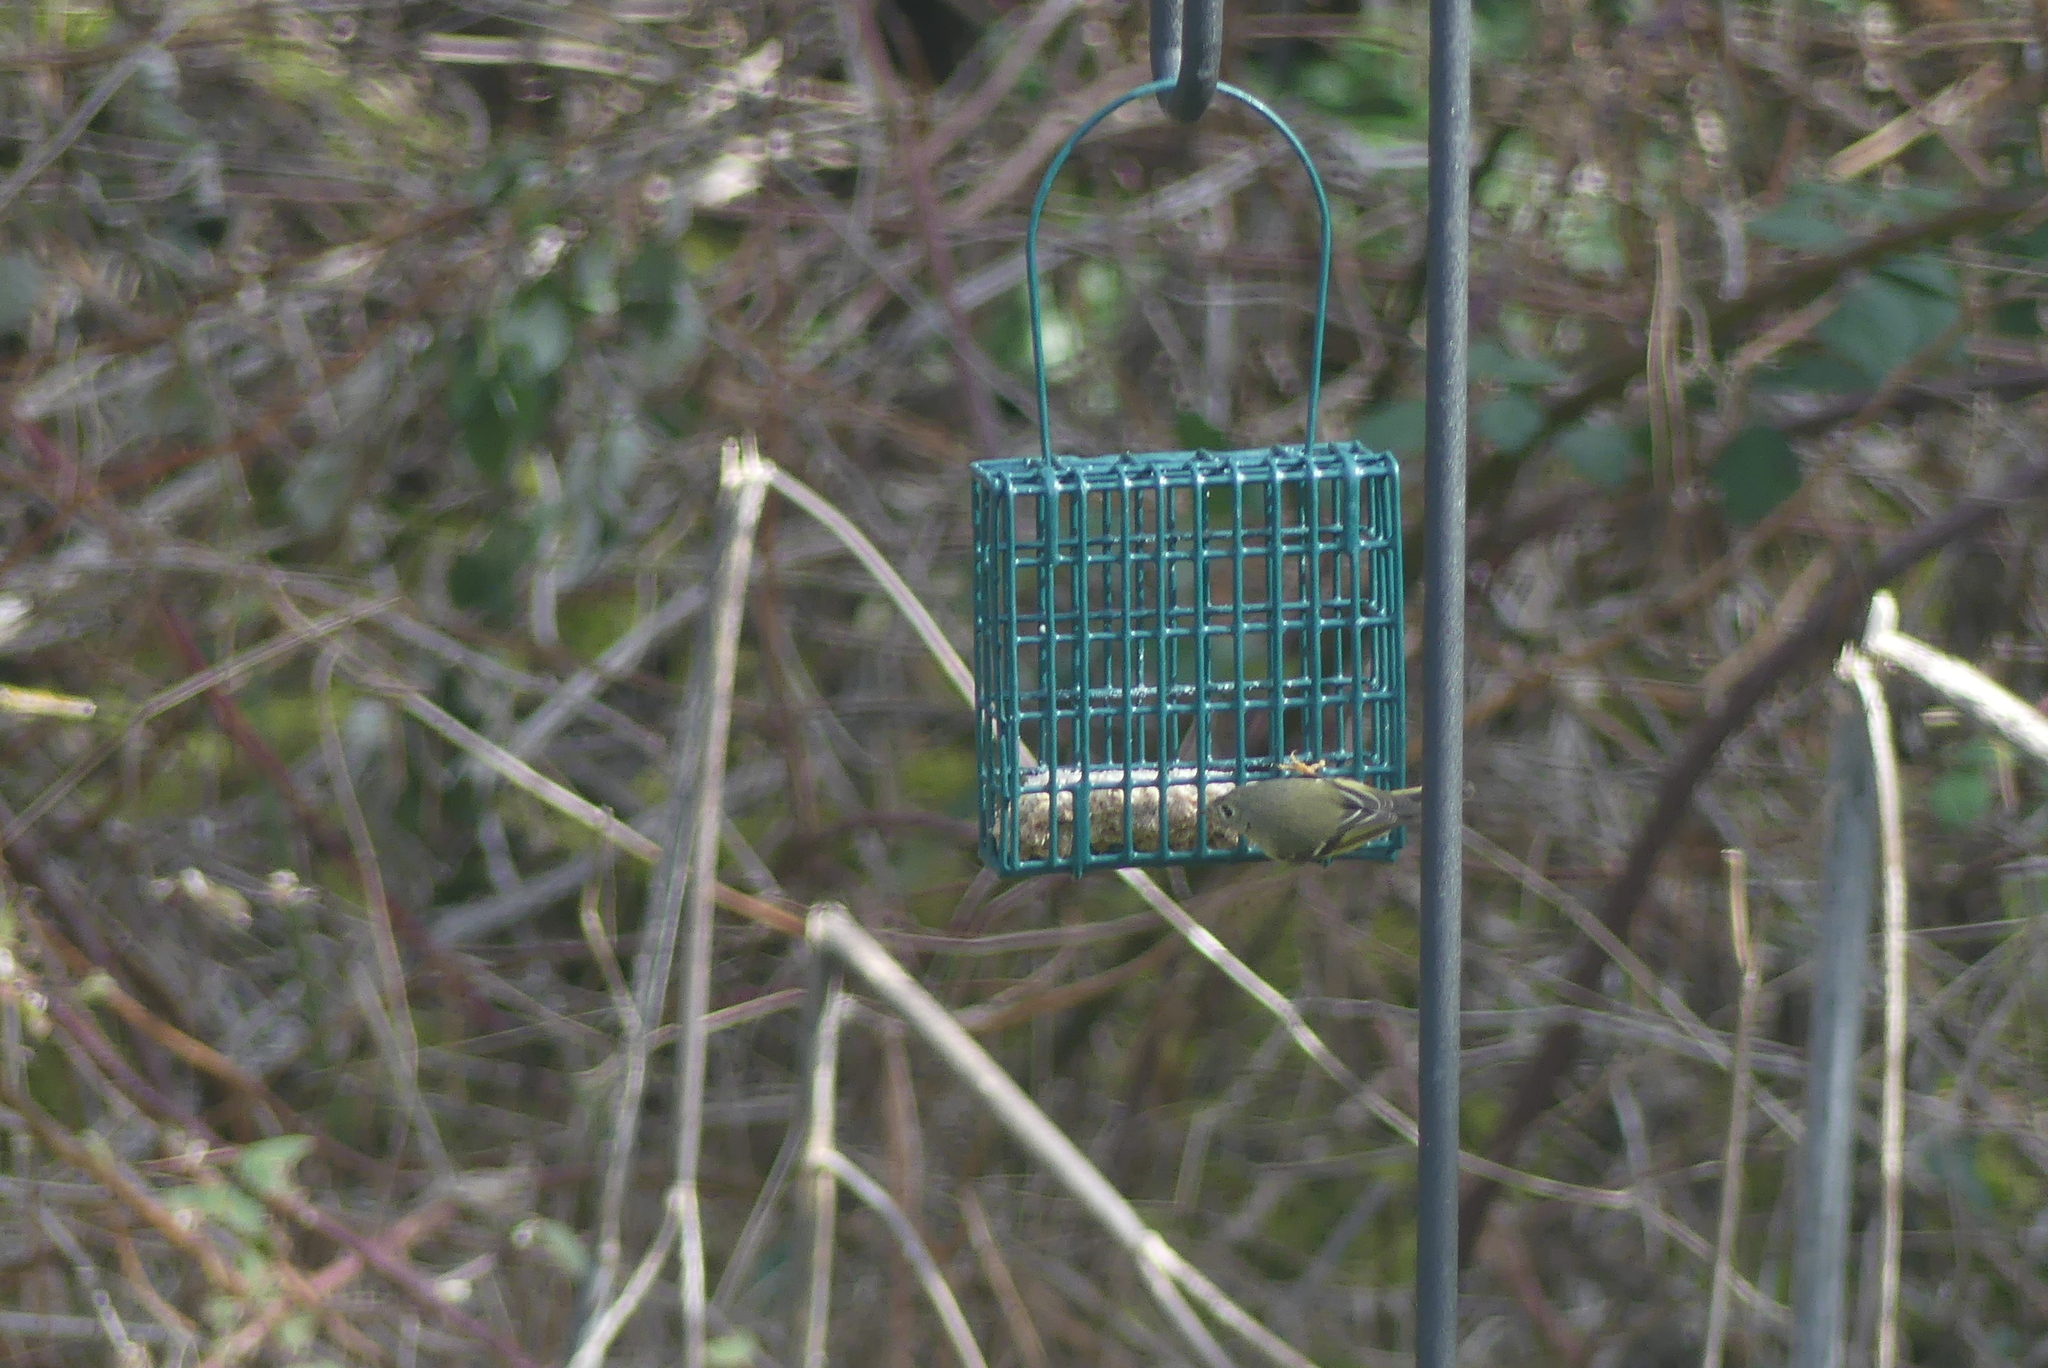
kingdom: Animalia
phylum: Chordata
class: Aves
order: Passeriformes
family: Regulidae
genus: Regulus
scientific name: Regulus calendula
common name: Ruby-crowned kinglet
